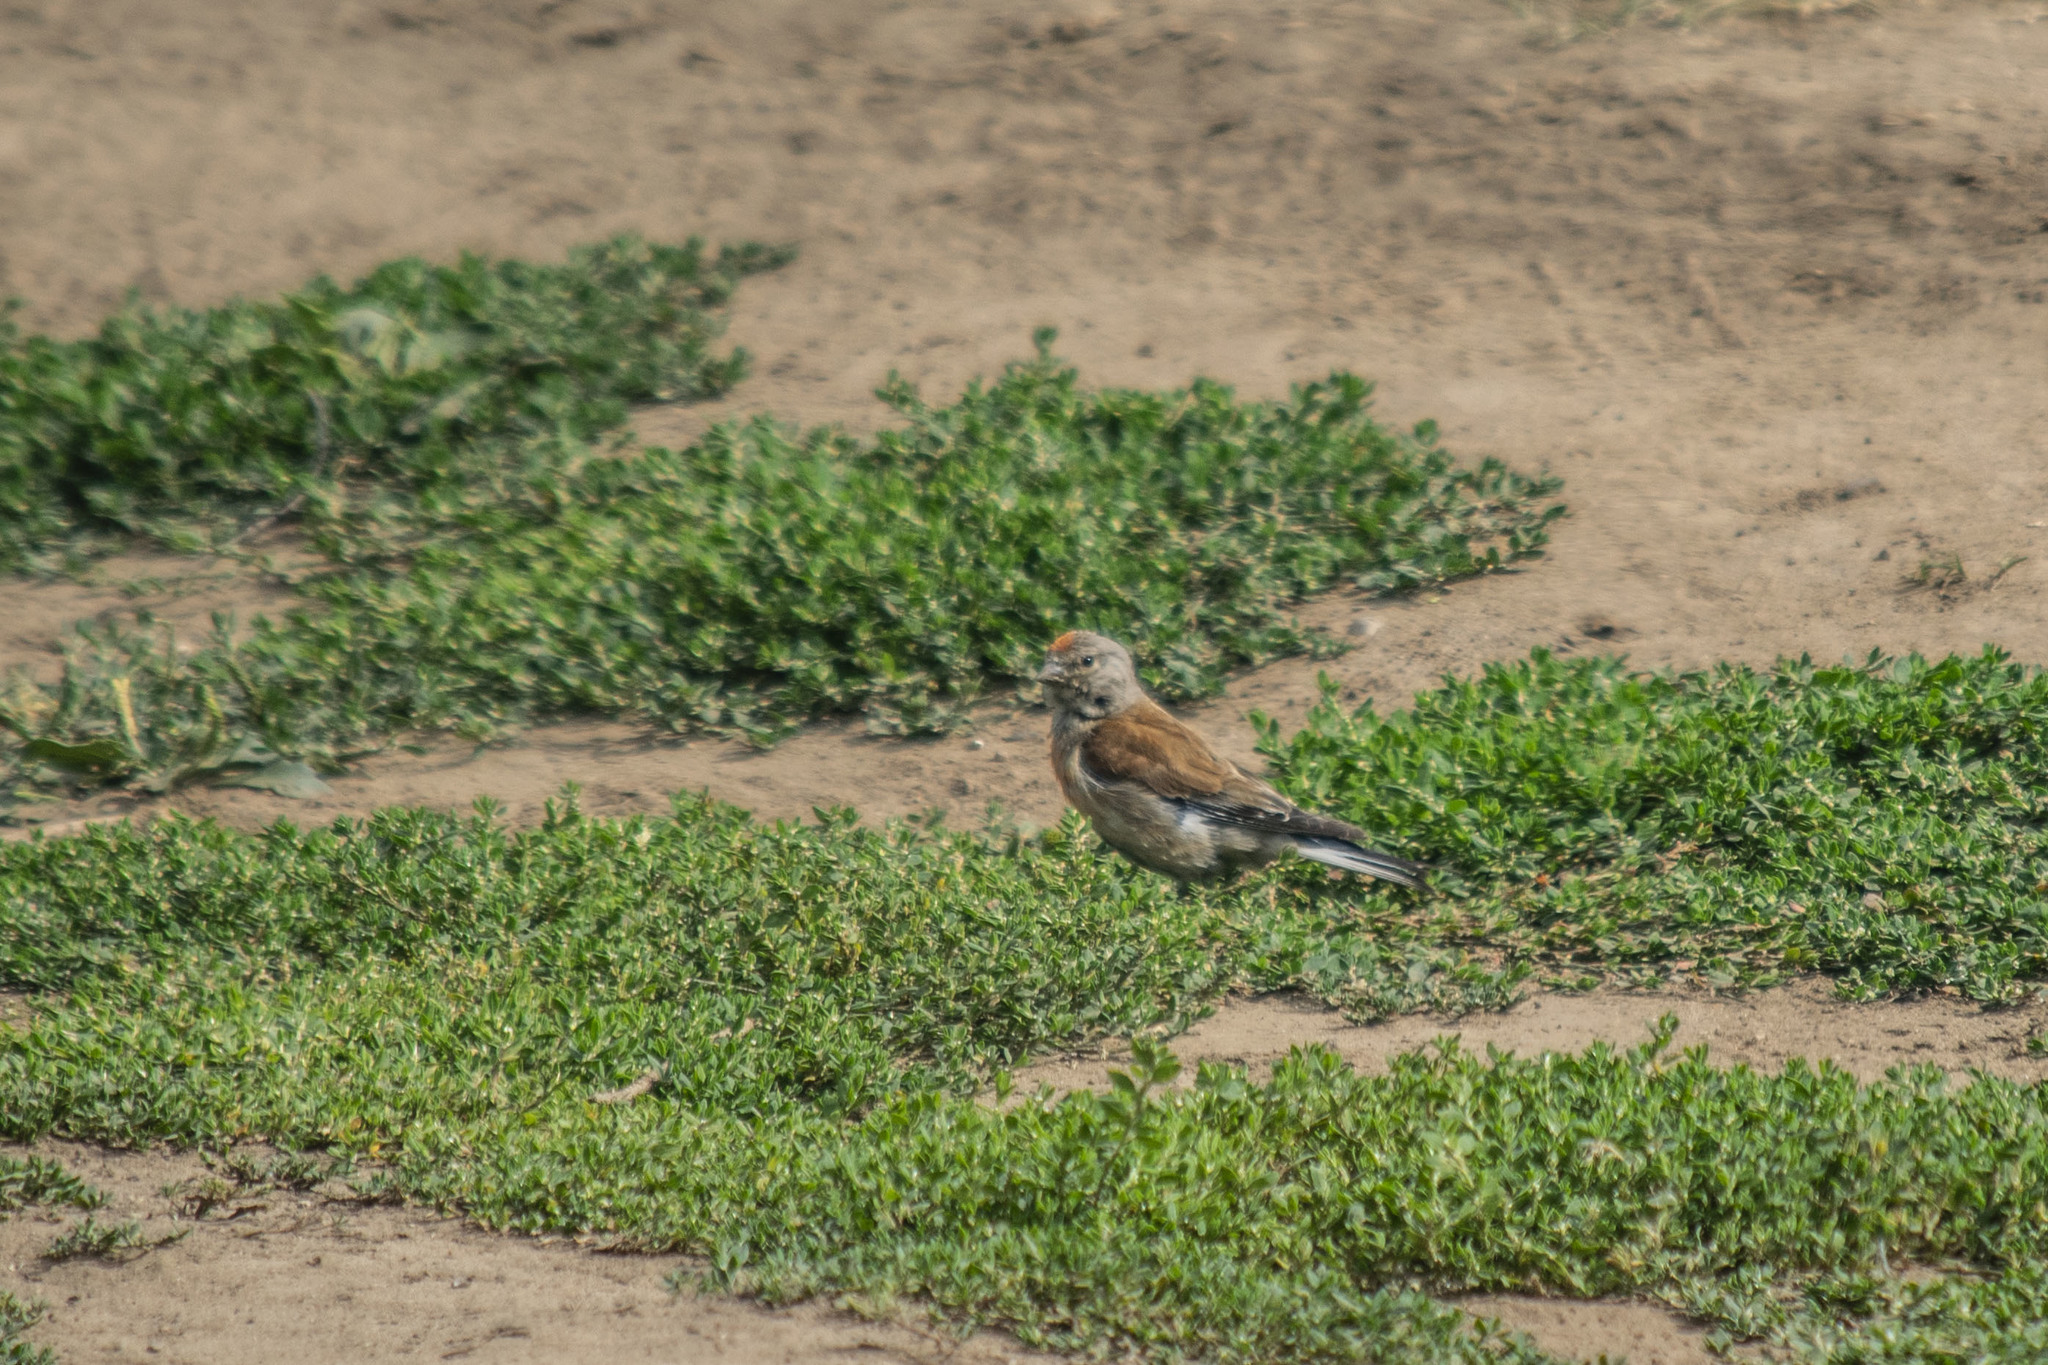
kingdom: Animalia
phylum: Chordata
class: Aves
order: Passeriformes
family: Fringillidae
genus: Linaria
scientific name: Linaria cannabina
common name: Common linnet
